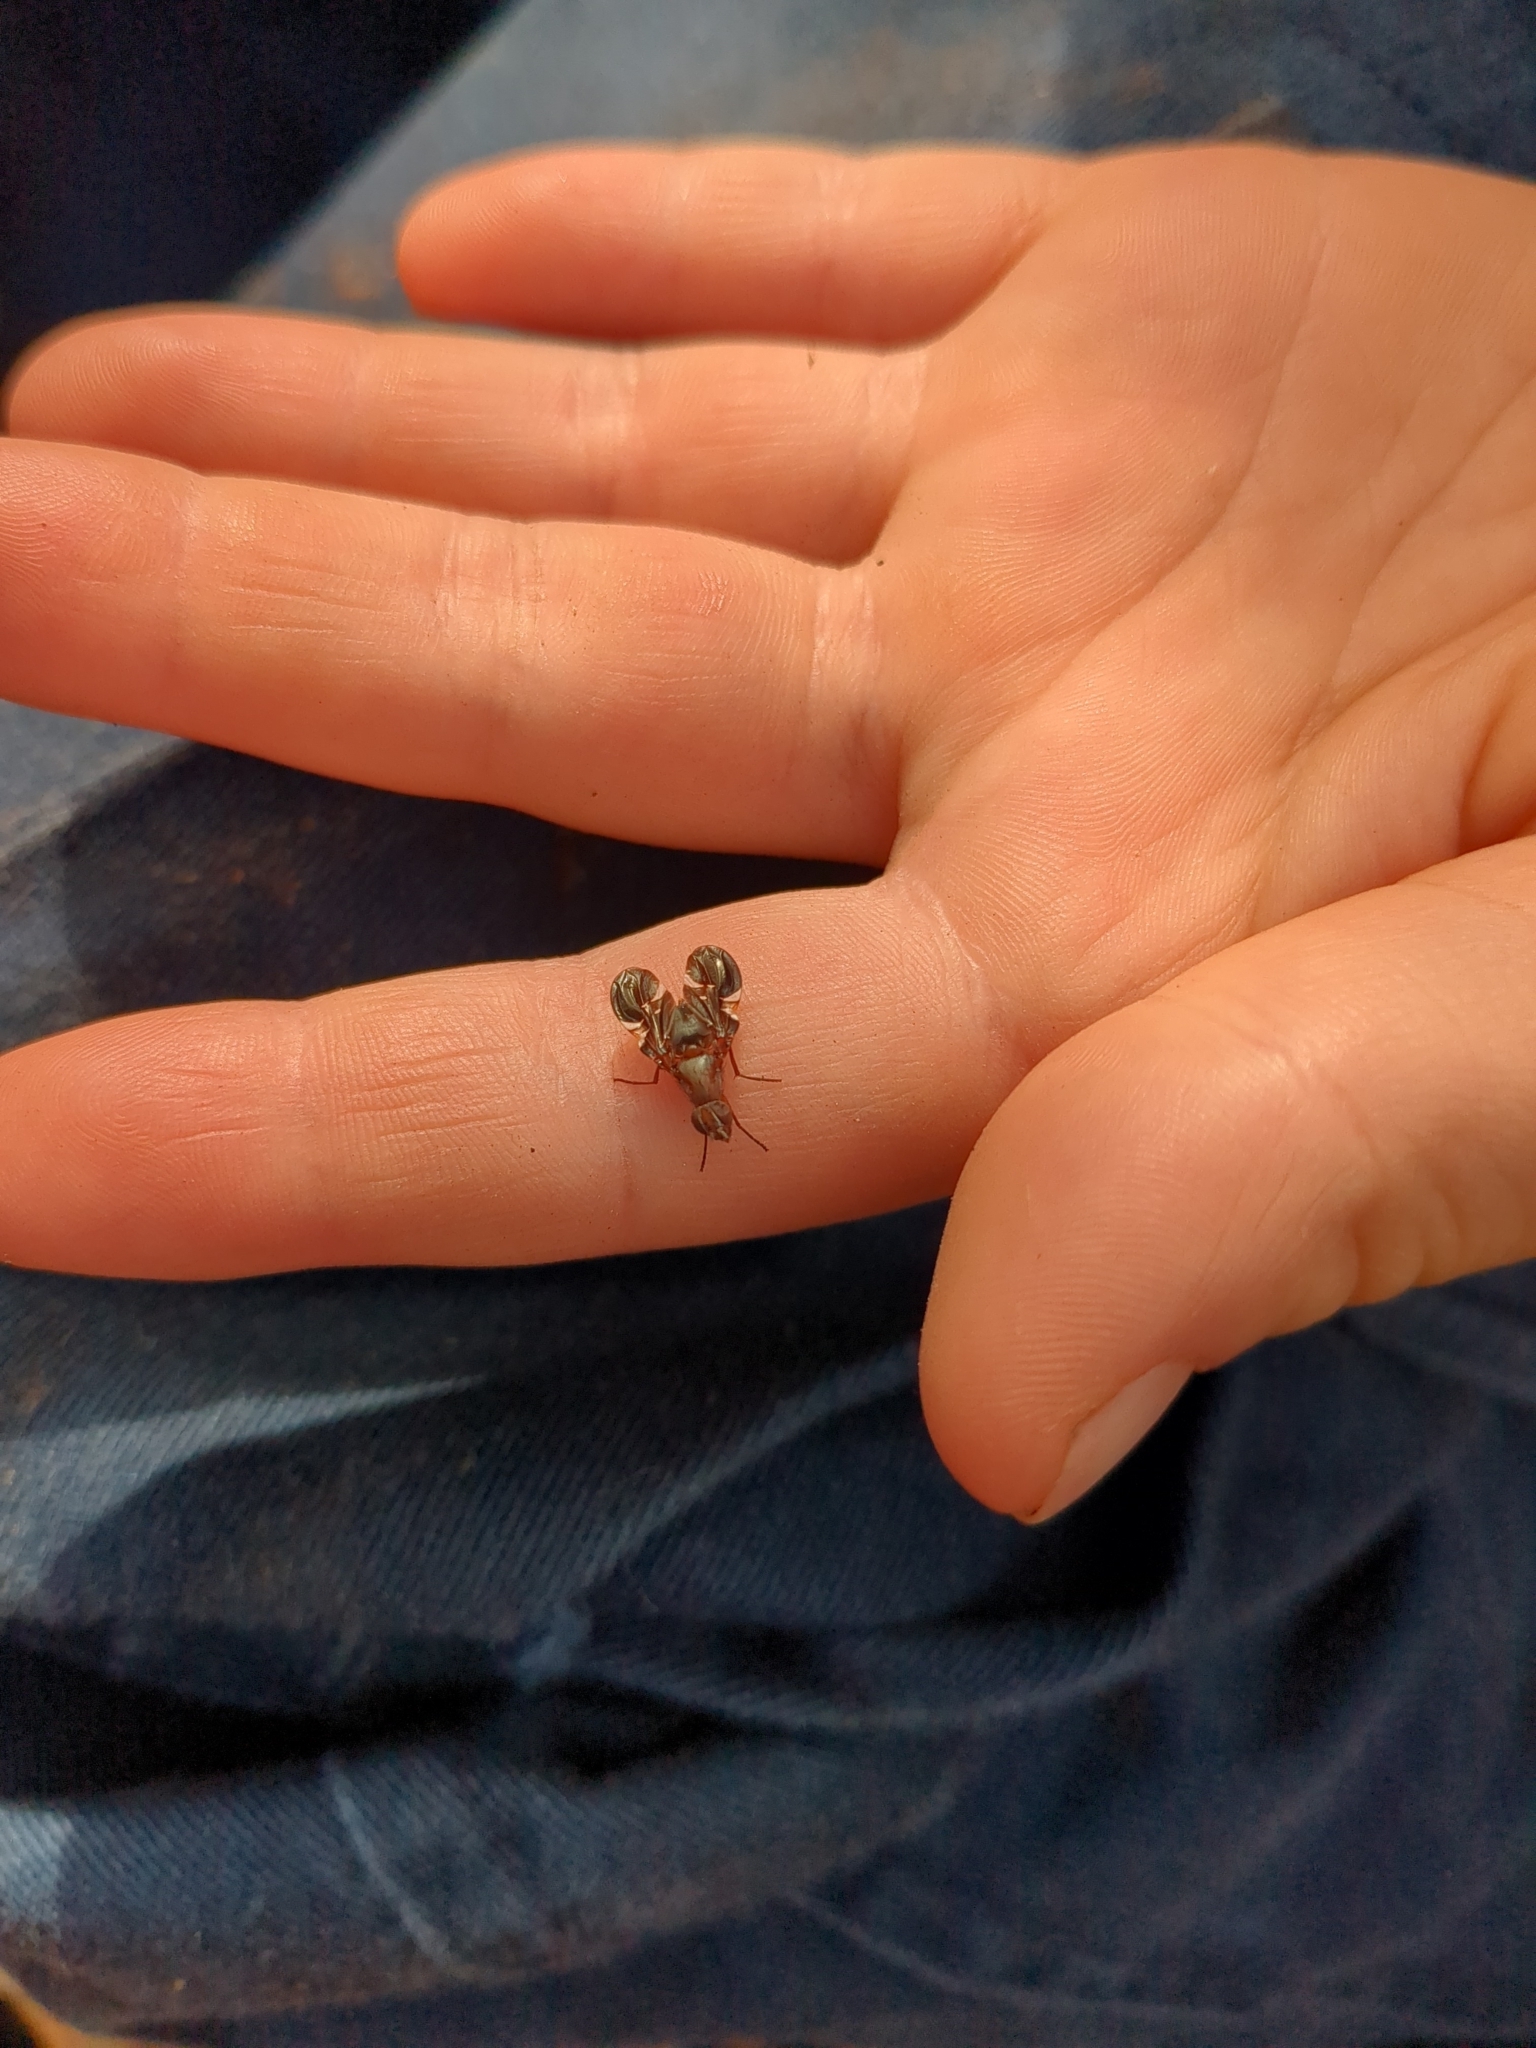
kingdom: Animalia
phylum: Arthropoda
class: Insecta
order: Diptera
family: Ulidiidae
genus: Delphinia
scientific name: Delphinia picta
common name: Common picture-winged fly
